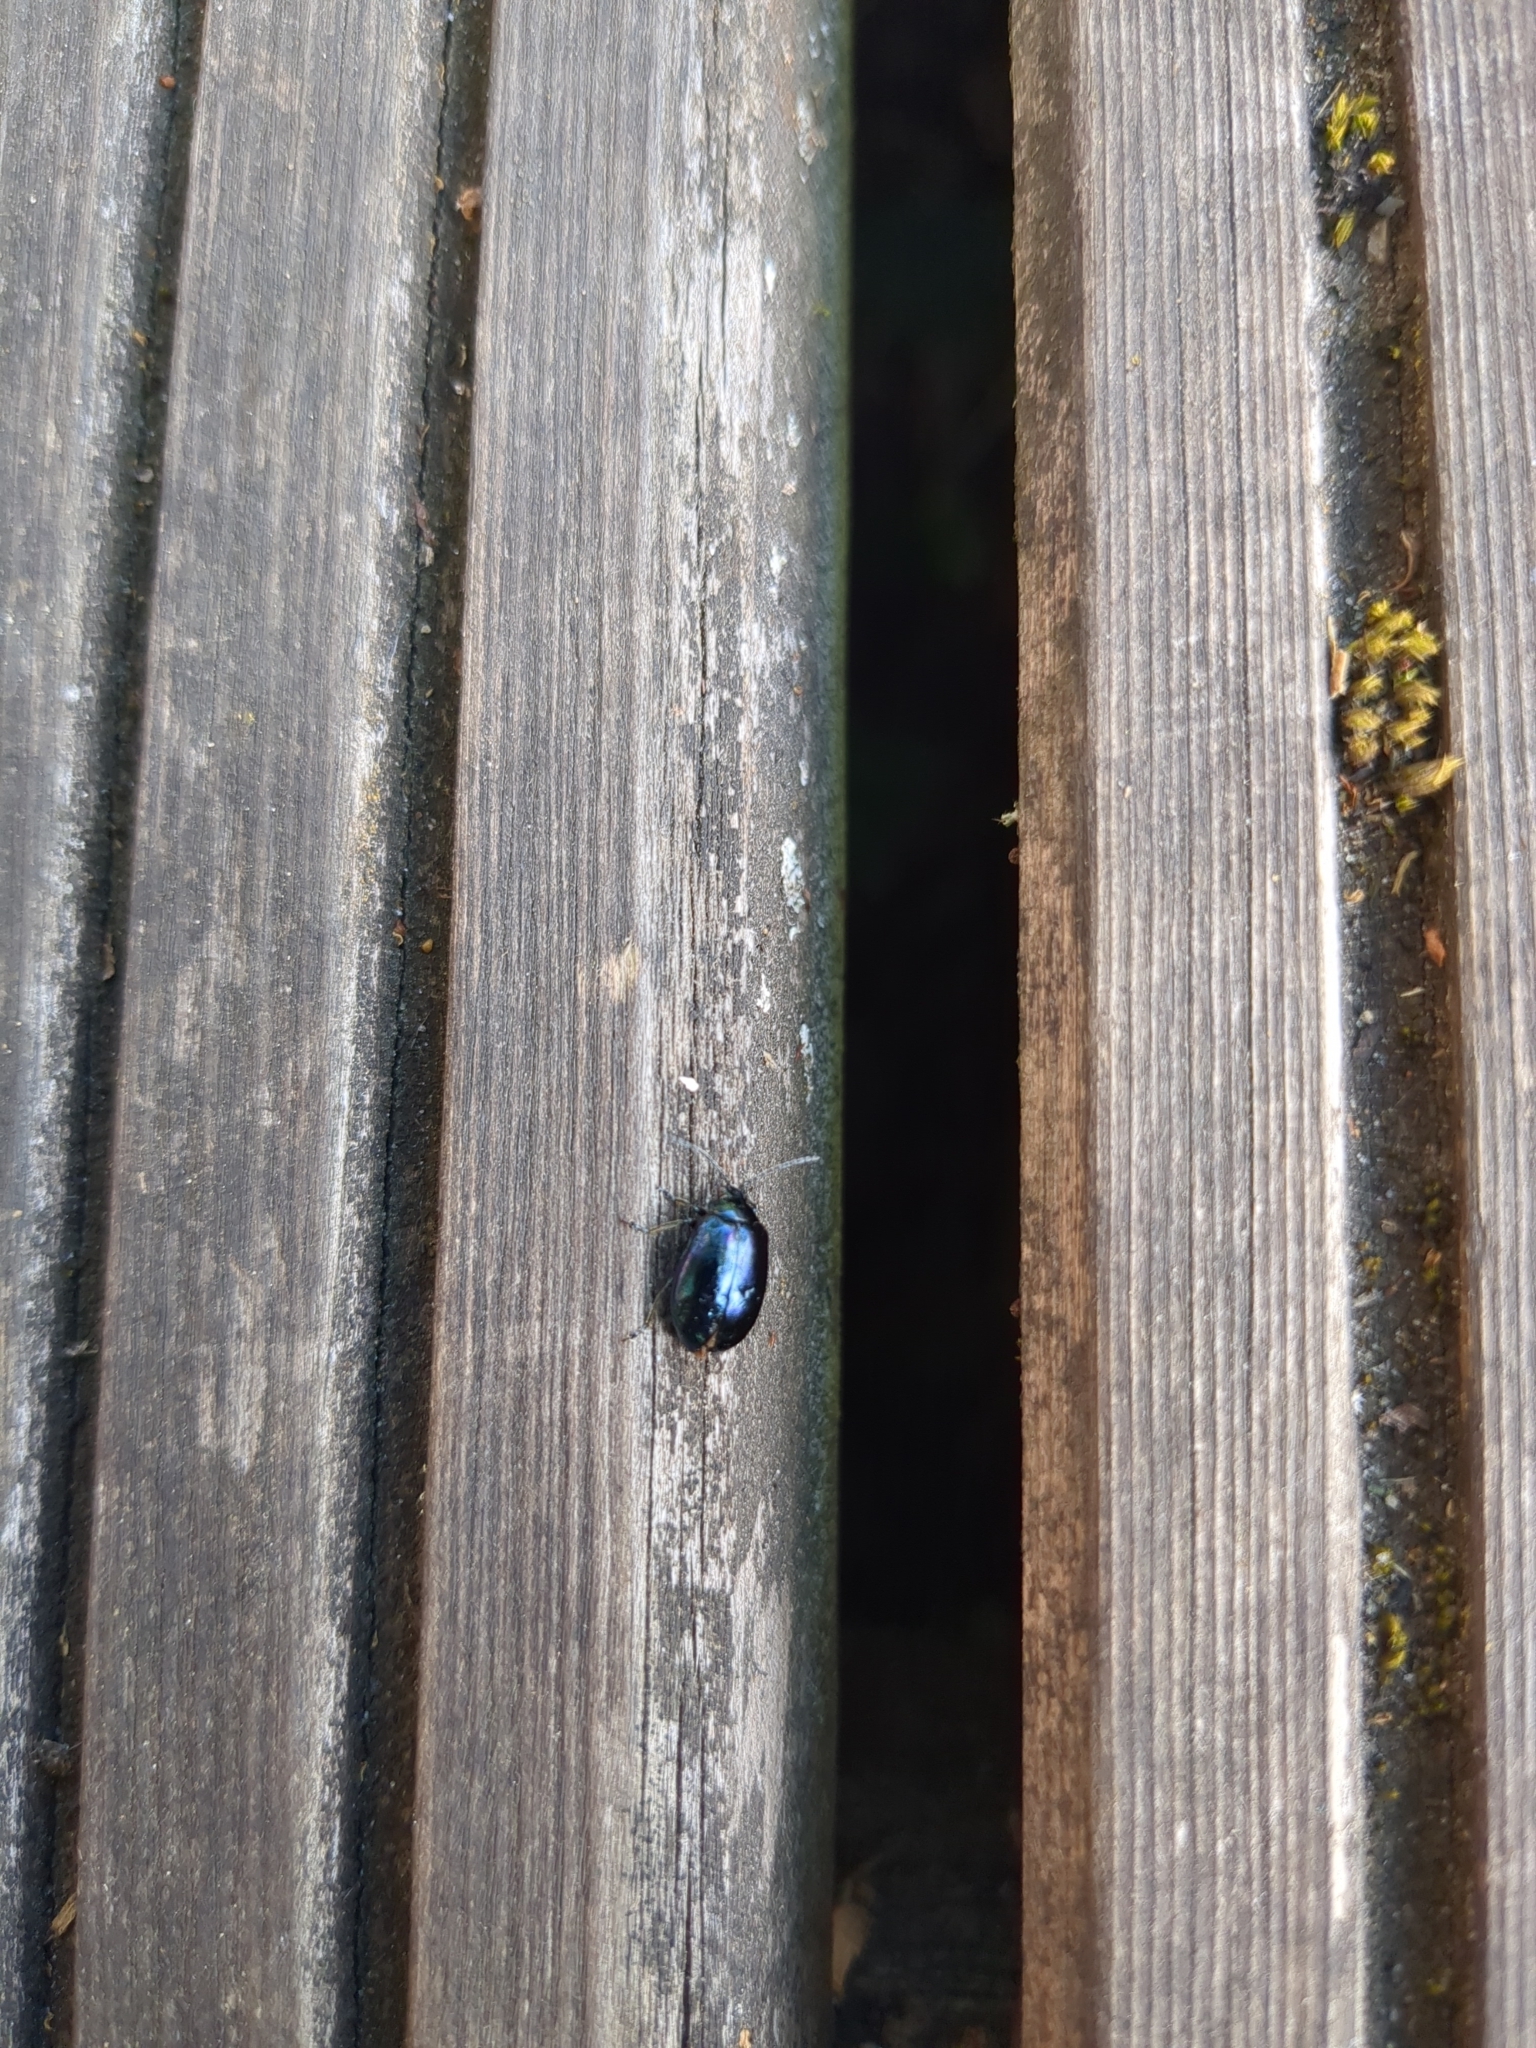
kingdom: Animalia
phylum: Arthropoda
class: Insecta
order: Coleoptera
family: Chrysomelidae
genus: Agelastica
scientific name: Agelastica alni
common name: Alder leaf beetle
